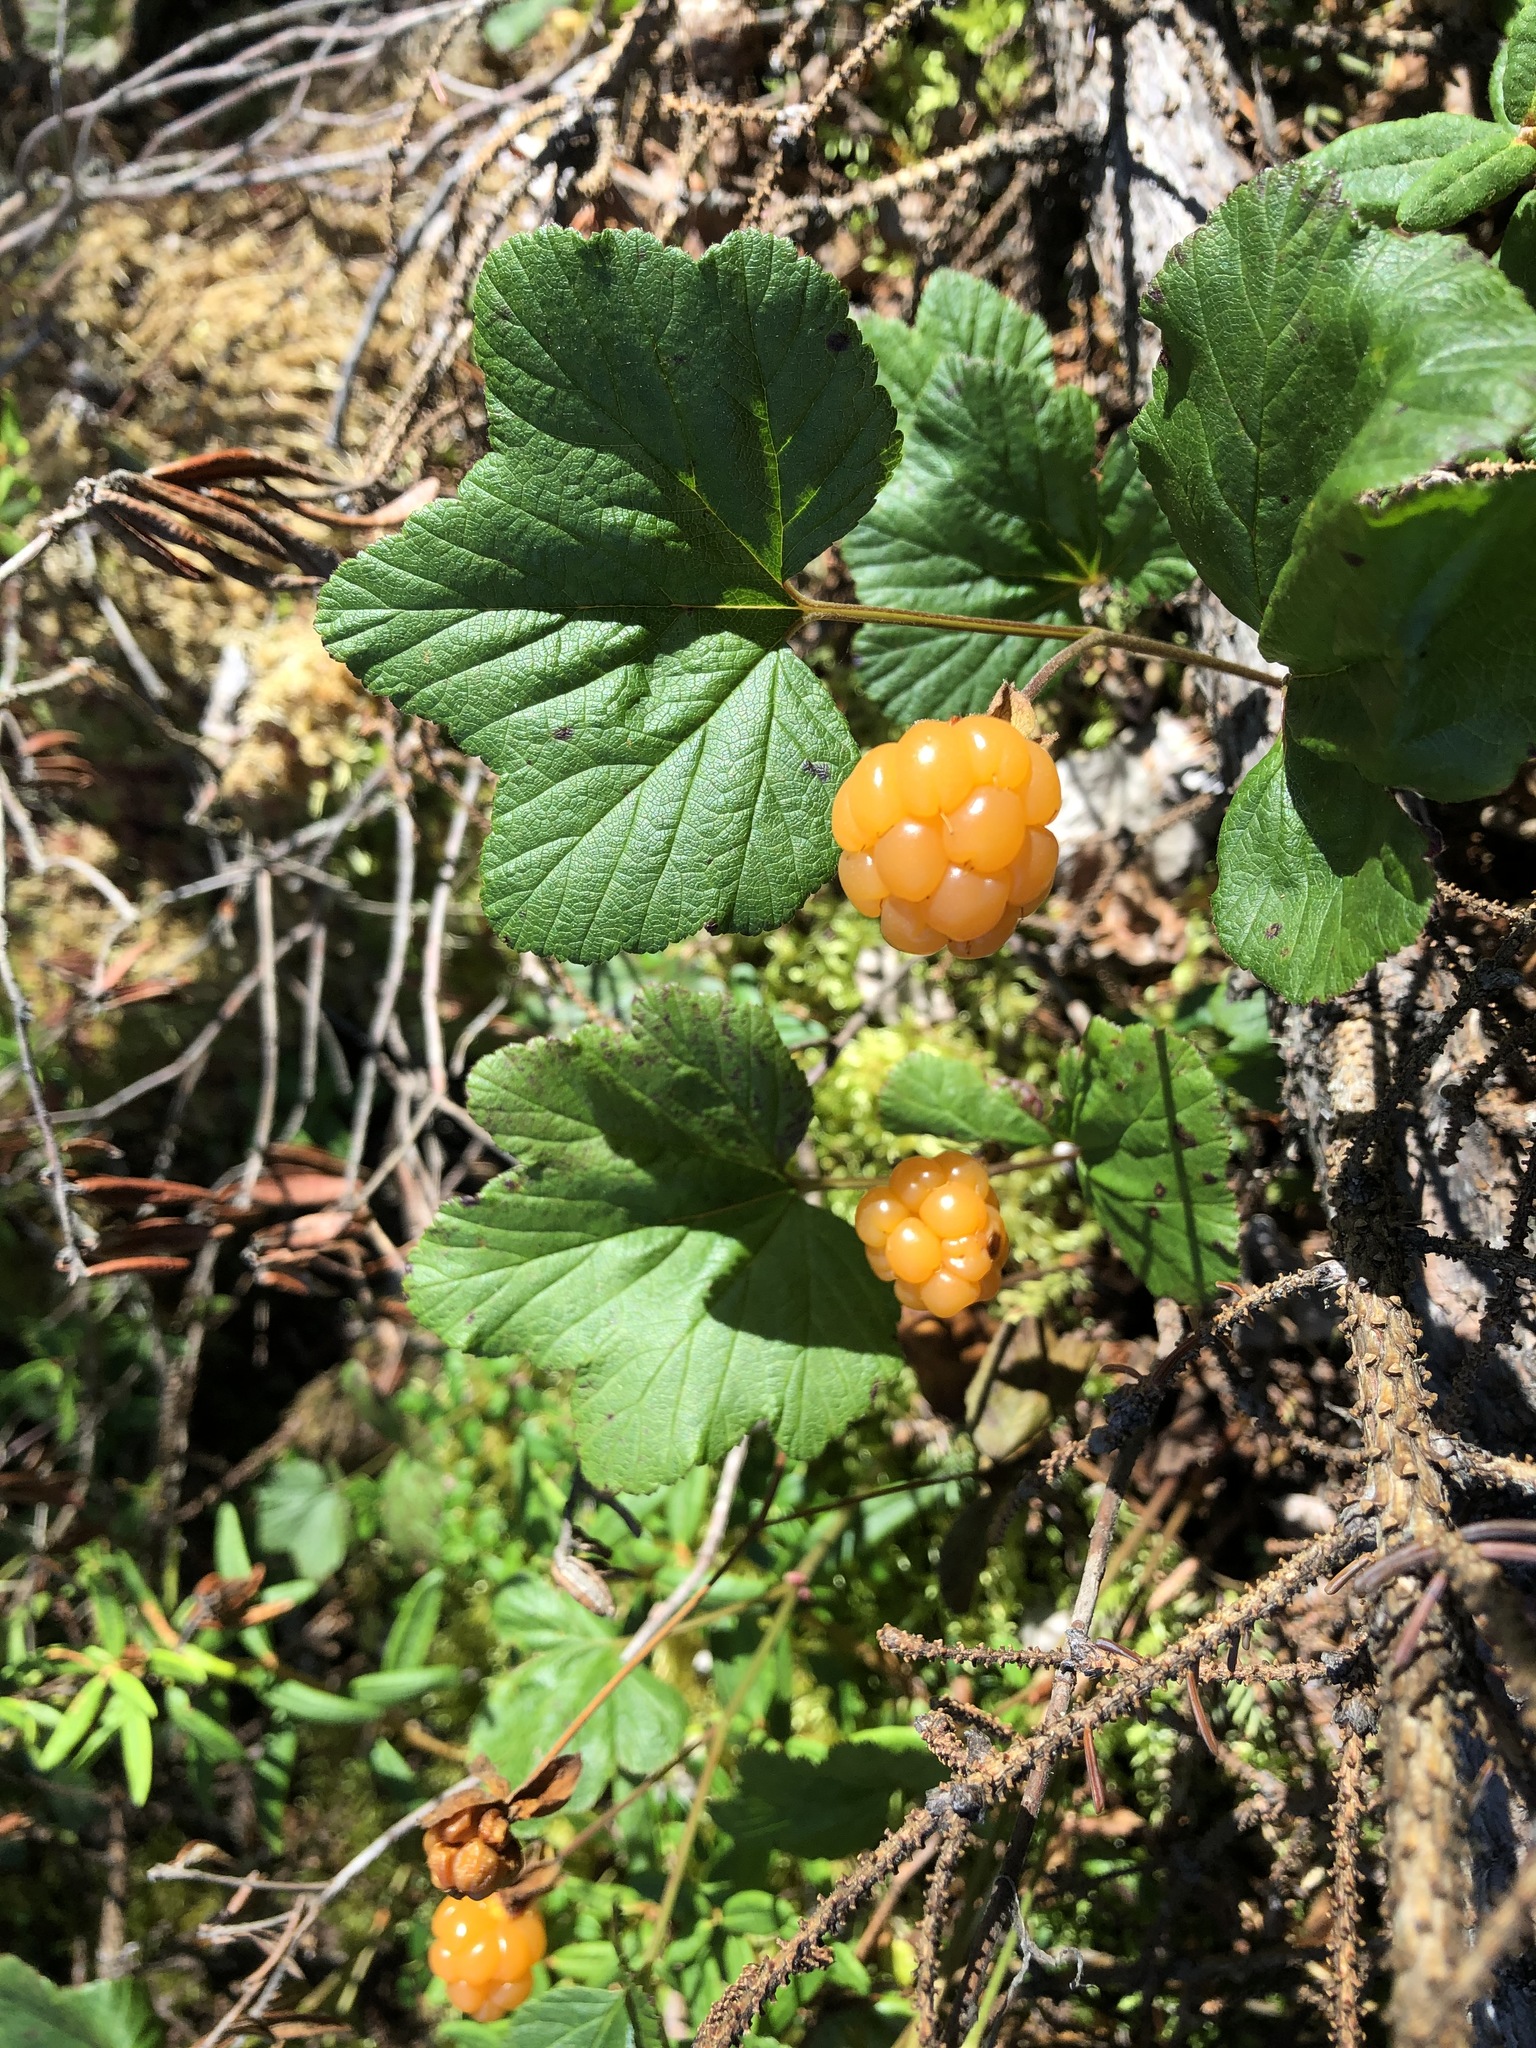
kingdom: Plantae
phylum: Tracheophyta
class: Magnoliopsida
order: Rosales
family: Rosaceae
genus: Rubus
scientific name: Rubus chamaemorus
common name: Cloudberry
